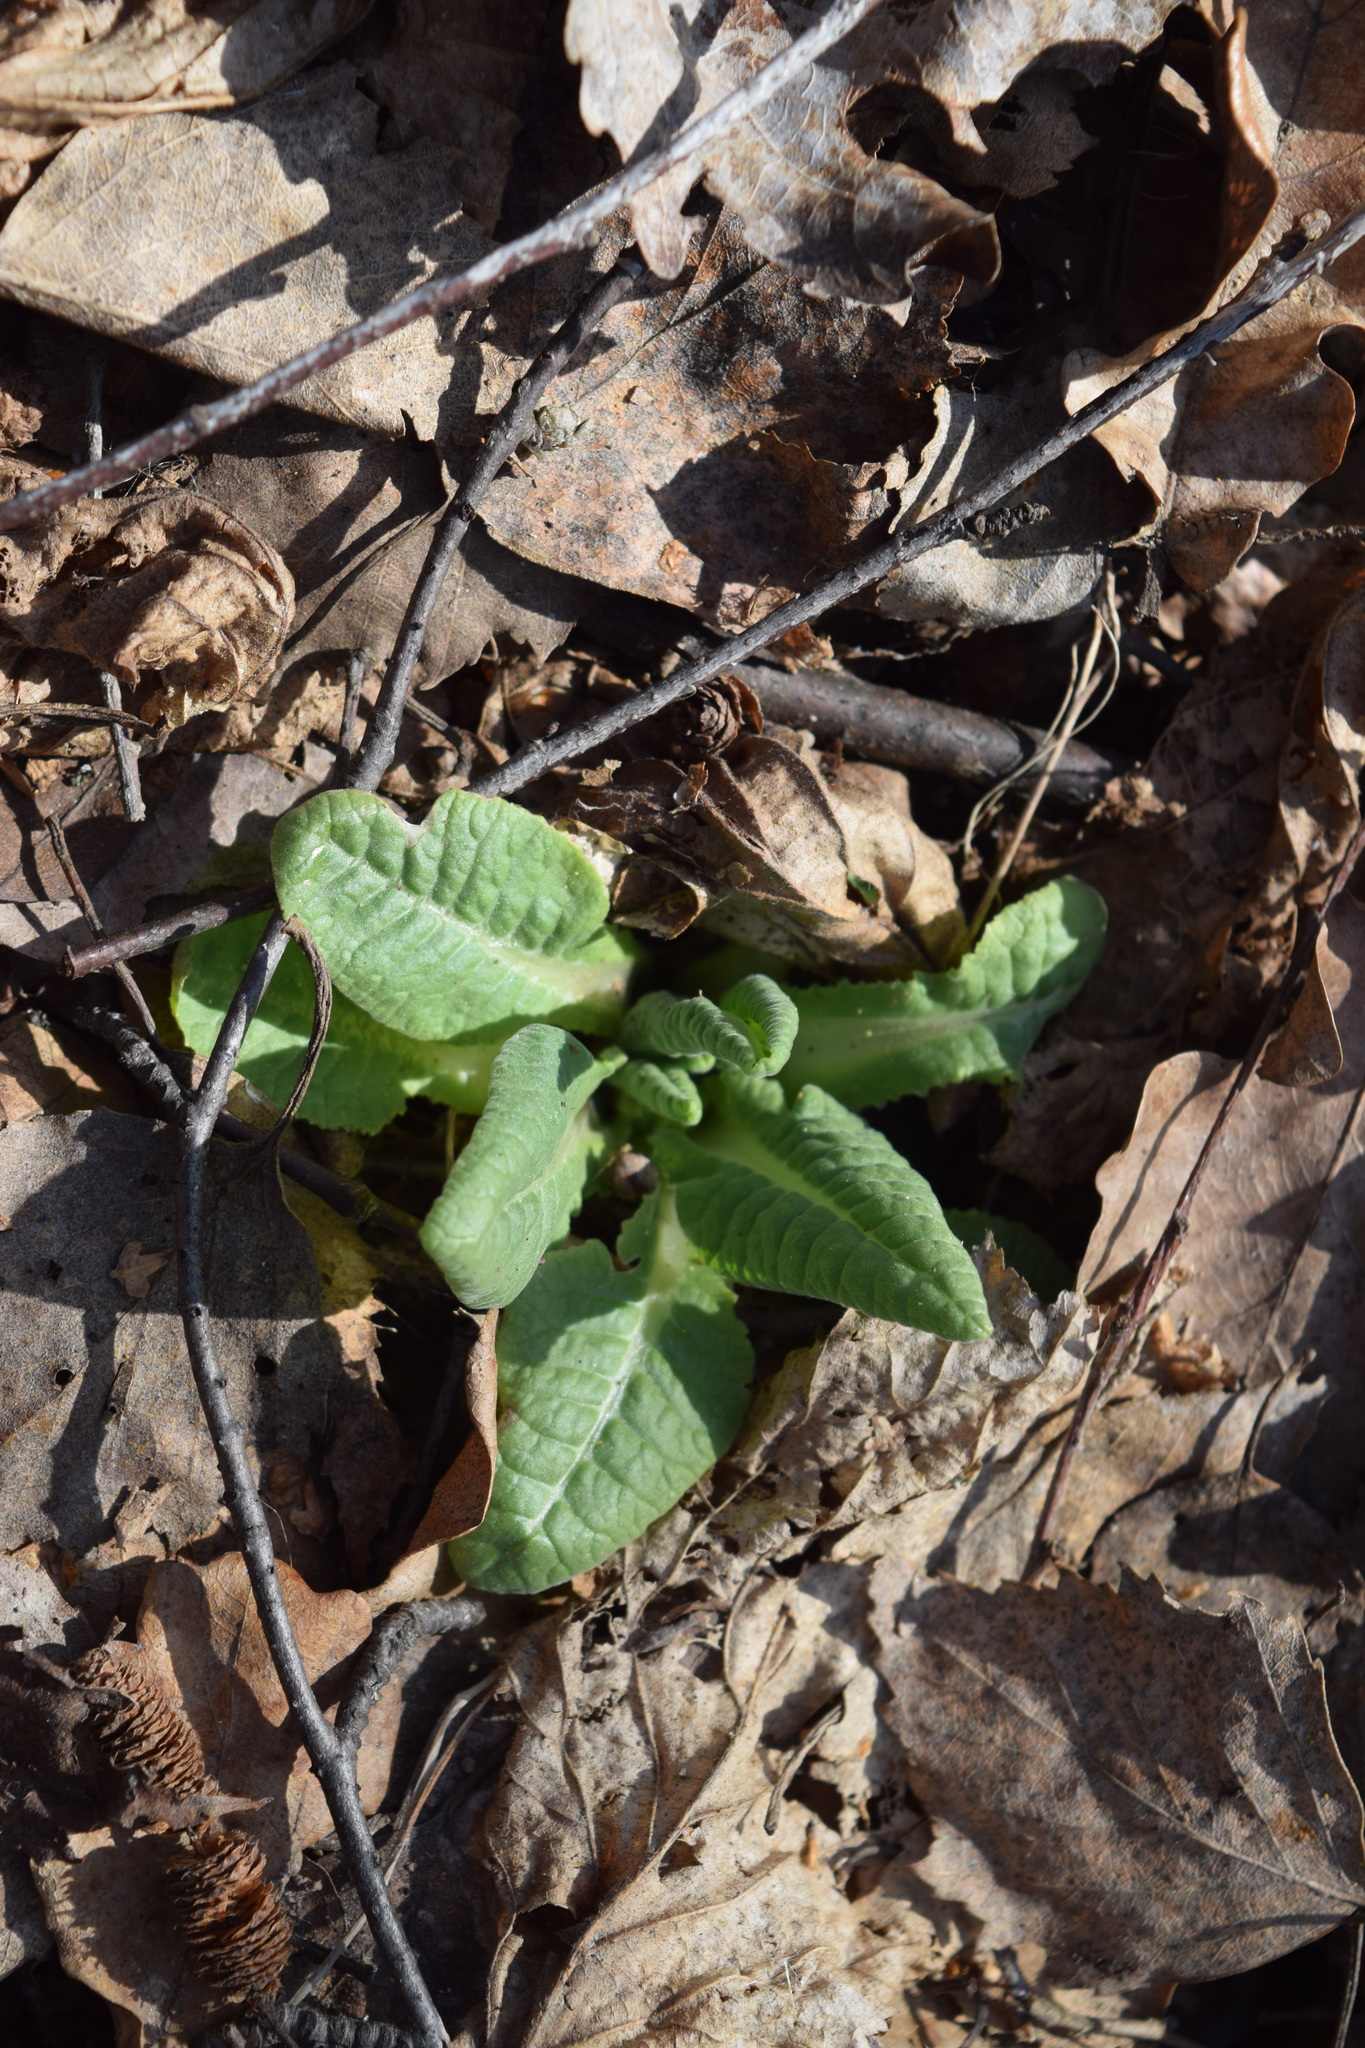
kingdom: Plantae
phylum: Tracheophyta
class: Magnoliopsida
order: Ericales
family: Primulaceae
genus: Primula
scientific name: Primula veris
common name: Cowslip
